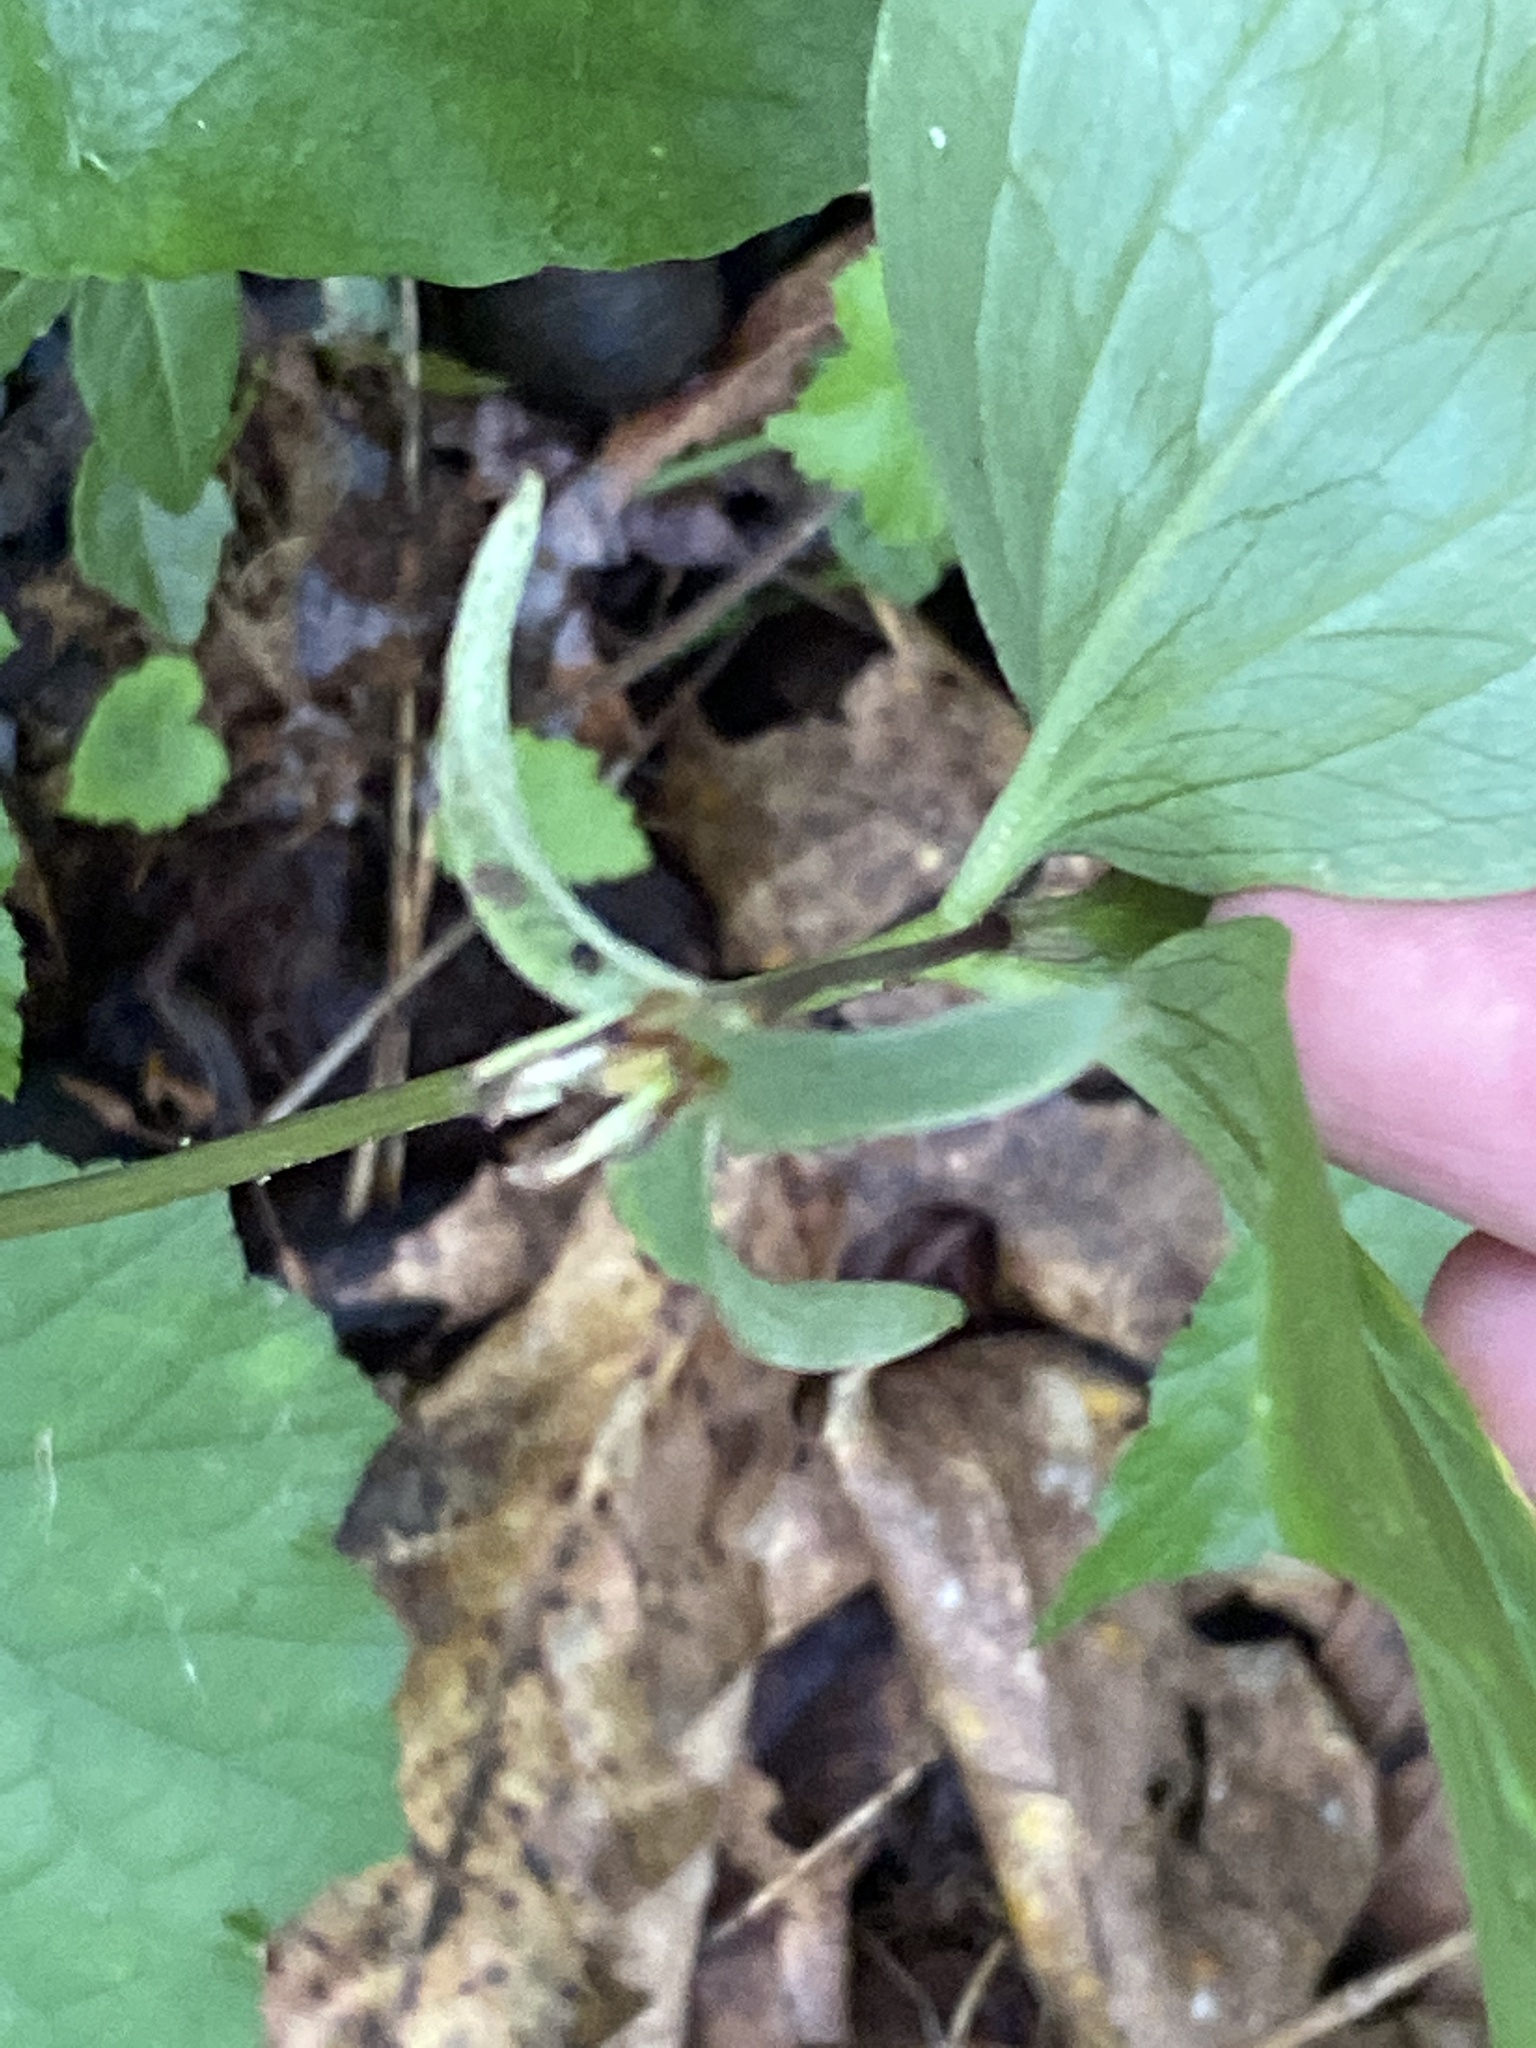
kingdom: Plantae
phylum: Tracheophyta
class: Liliopsida
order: Liliales
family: Melanthiaceae
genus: Trillium
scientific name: Trillium catesbaei
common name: Bashful trillium
